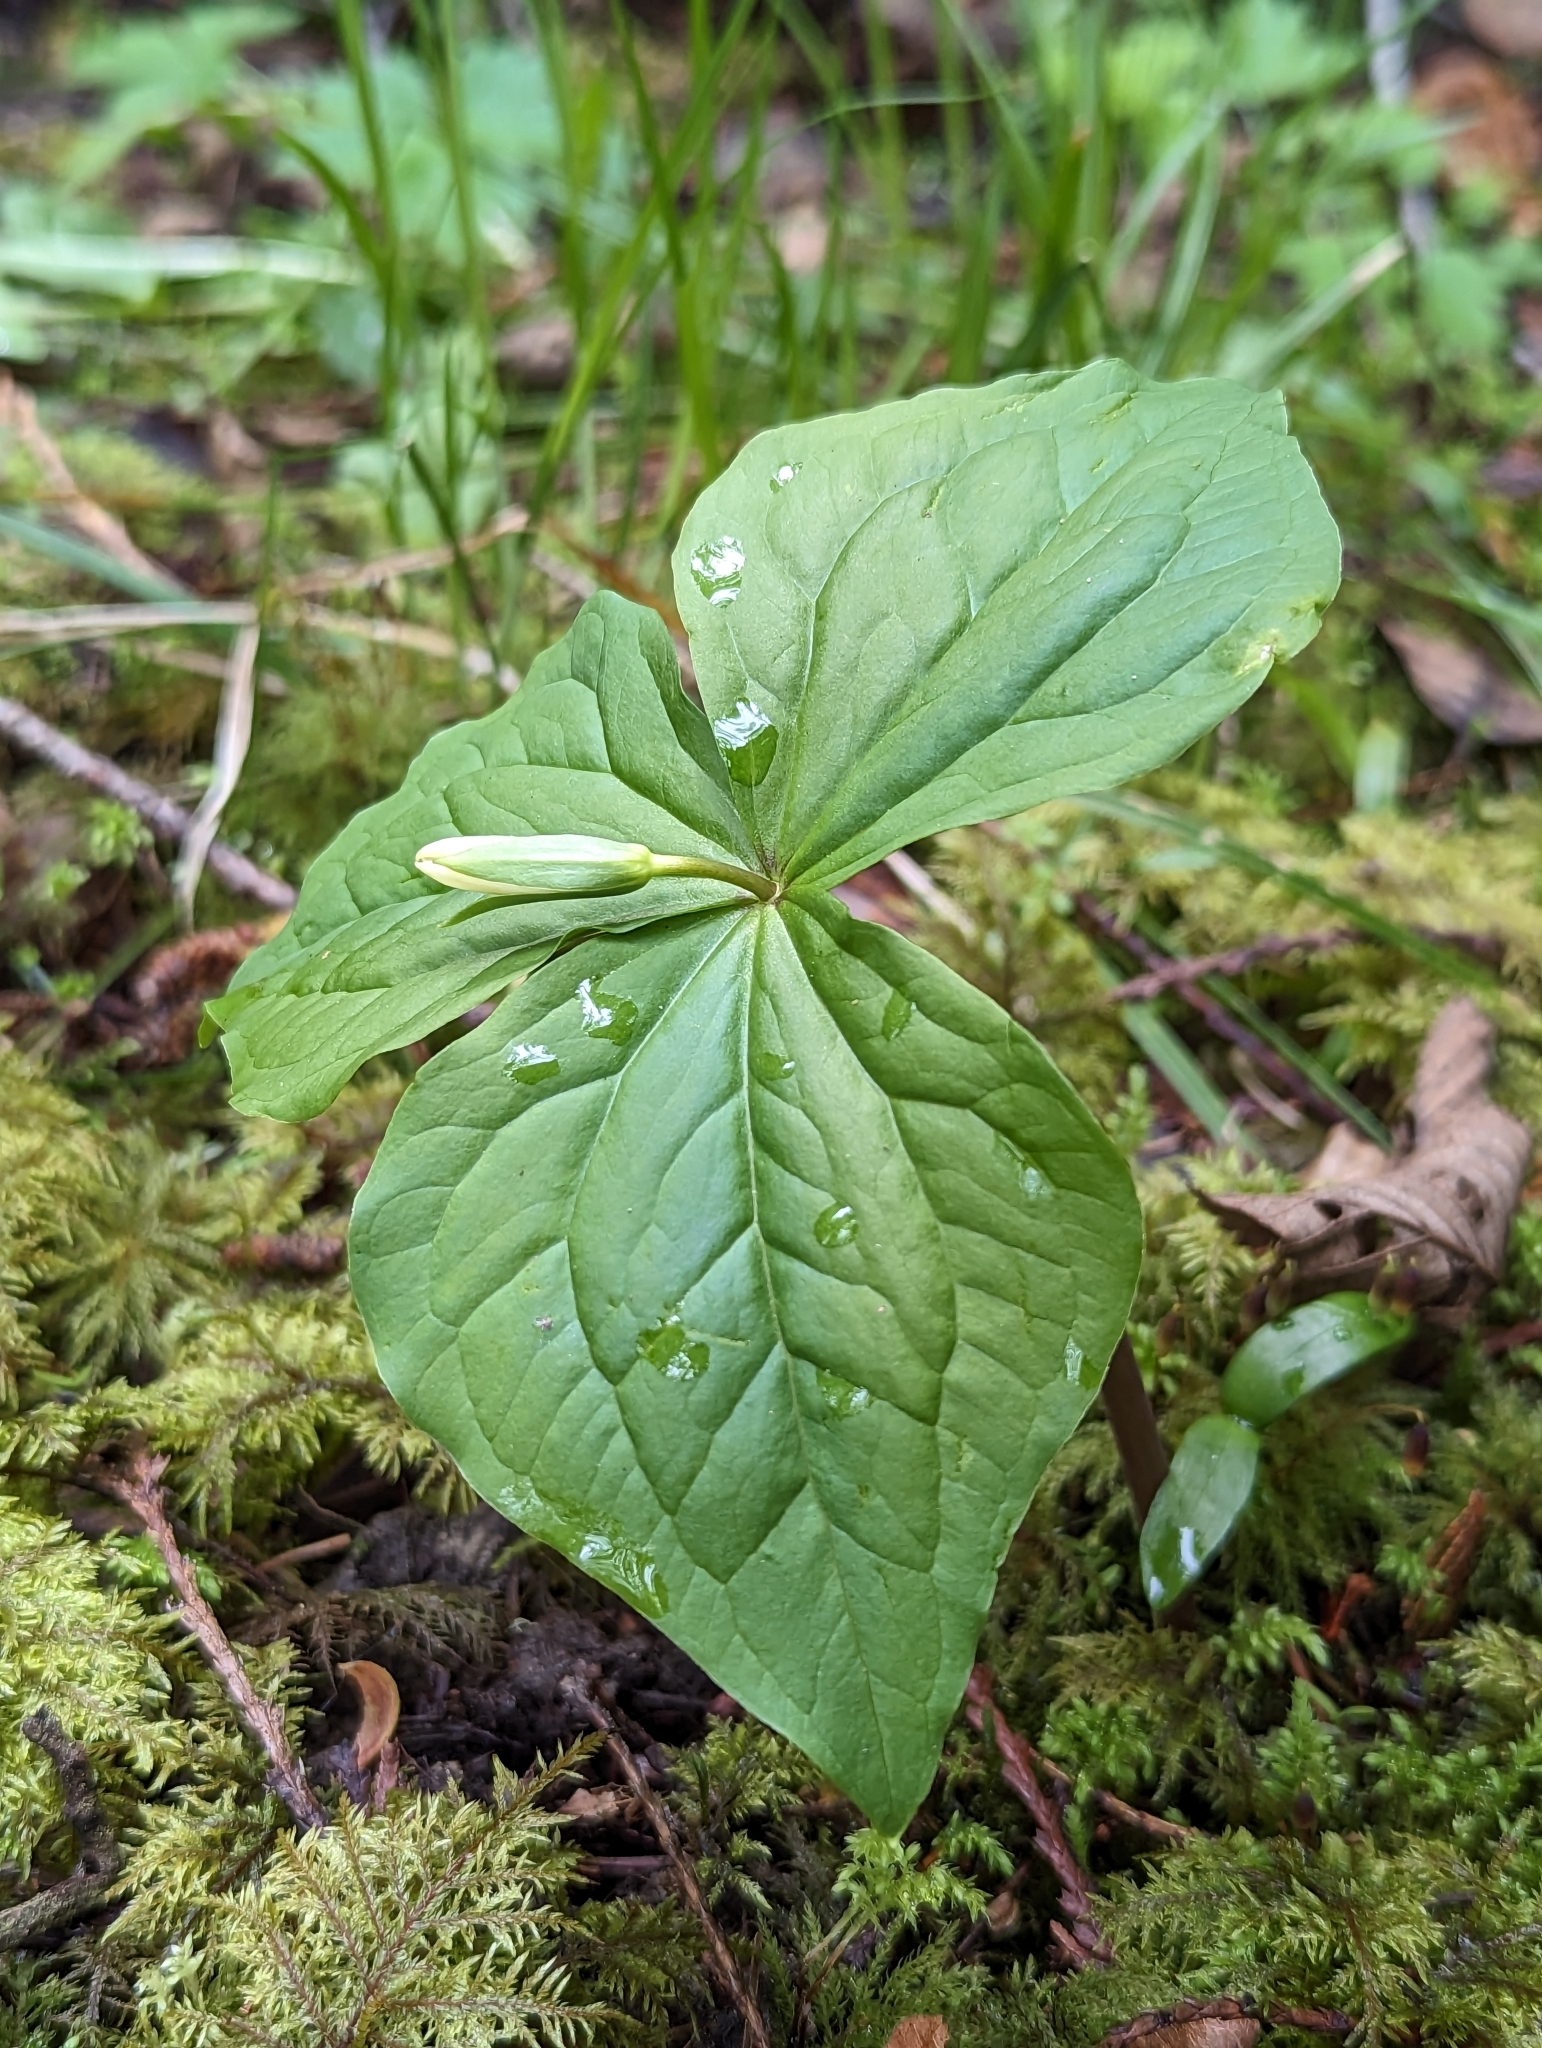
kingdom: Plantae
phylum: Tracheophyta
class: Liliopsida
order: Liliales
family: Melanthiaceae
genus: Trillium
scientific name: Trillium ovatum
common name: Pacific trillium
